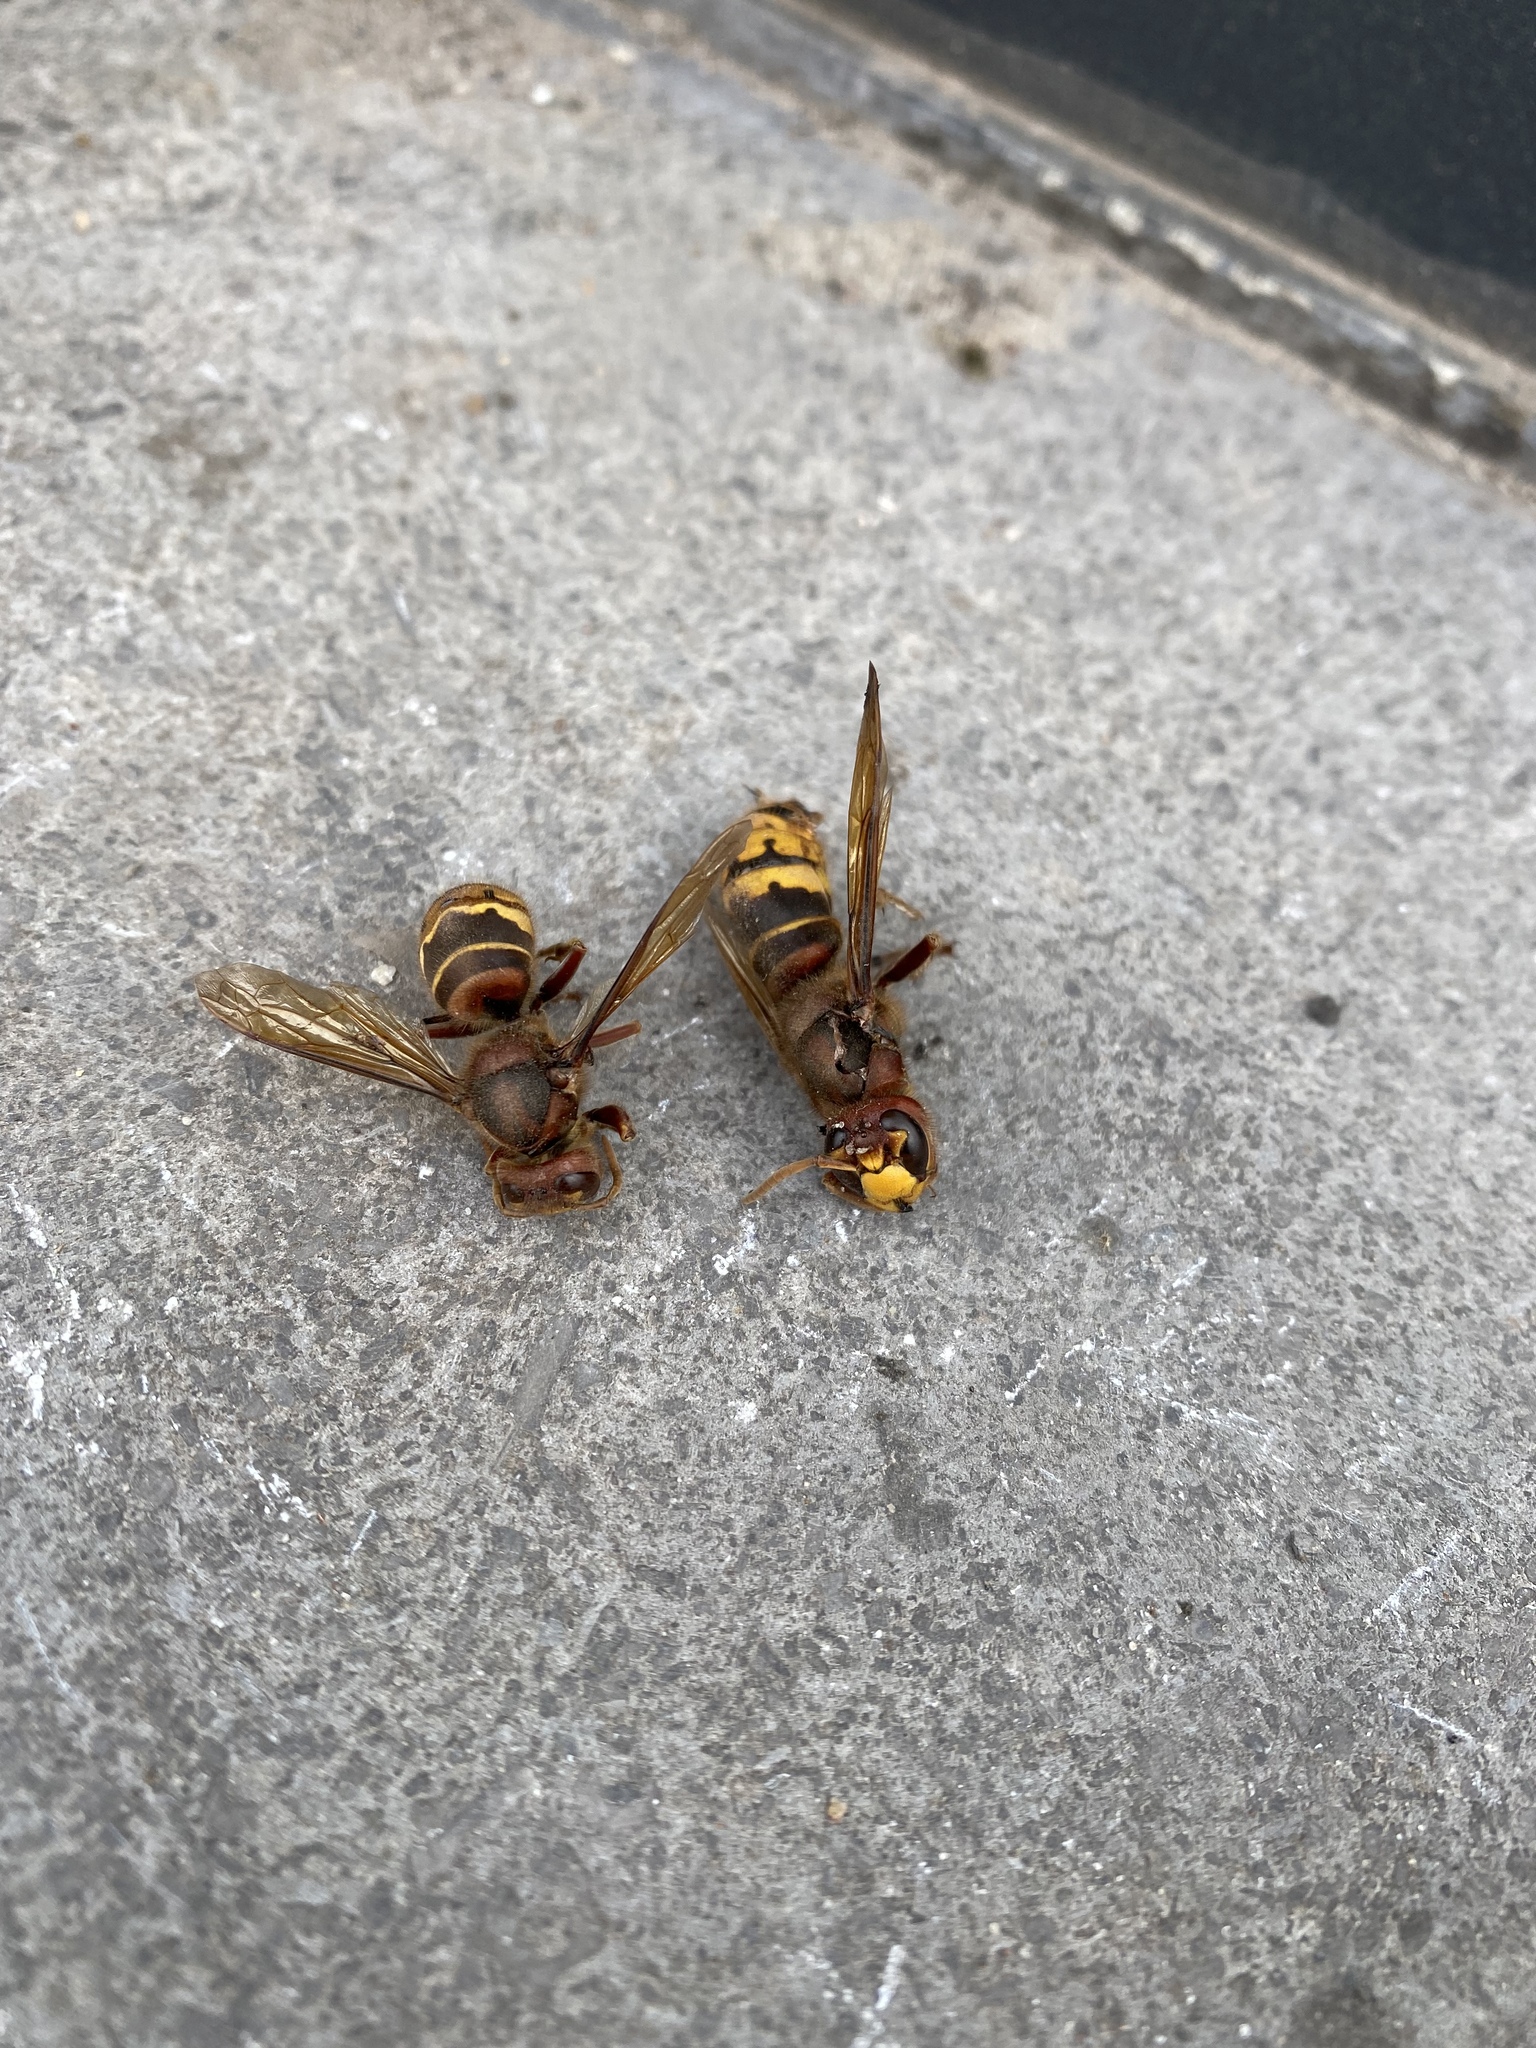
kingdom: Animalia
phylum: Arthropoda
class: Insecta
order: Hymenoptera
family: Vespidae
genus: Vespa
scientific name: Vespa crabro
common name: Hornet
